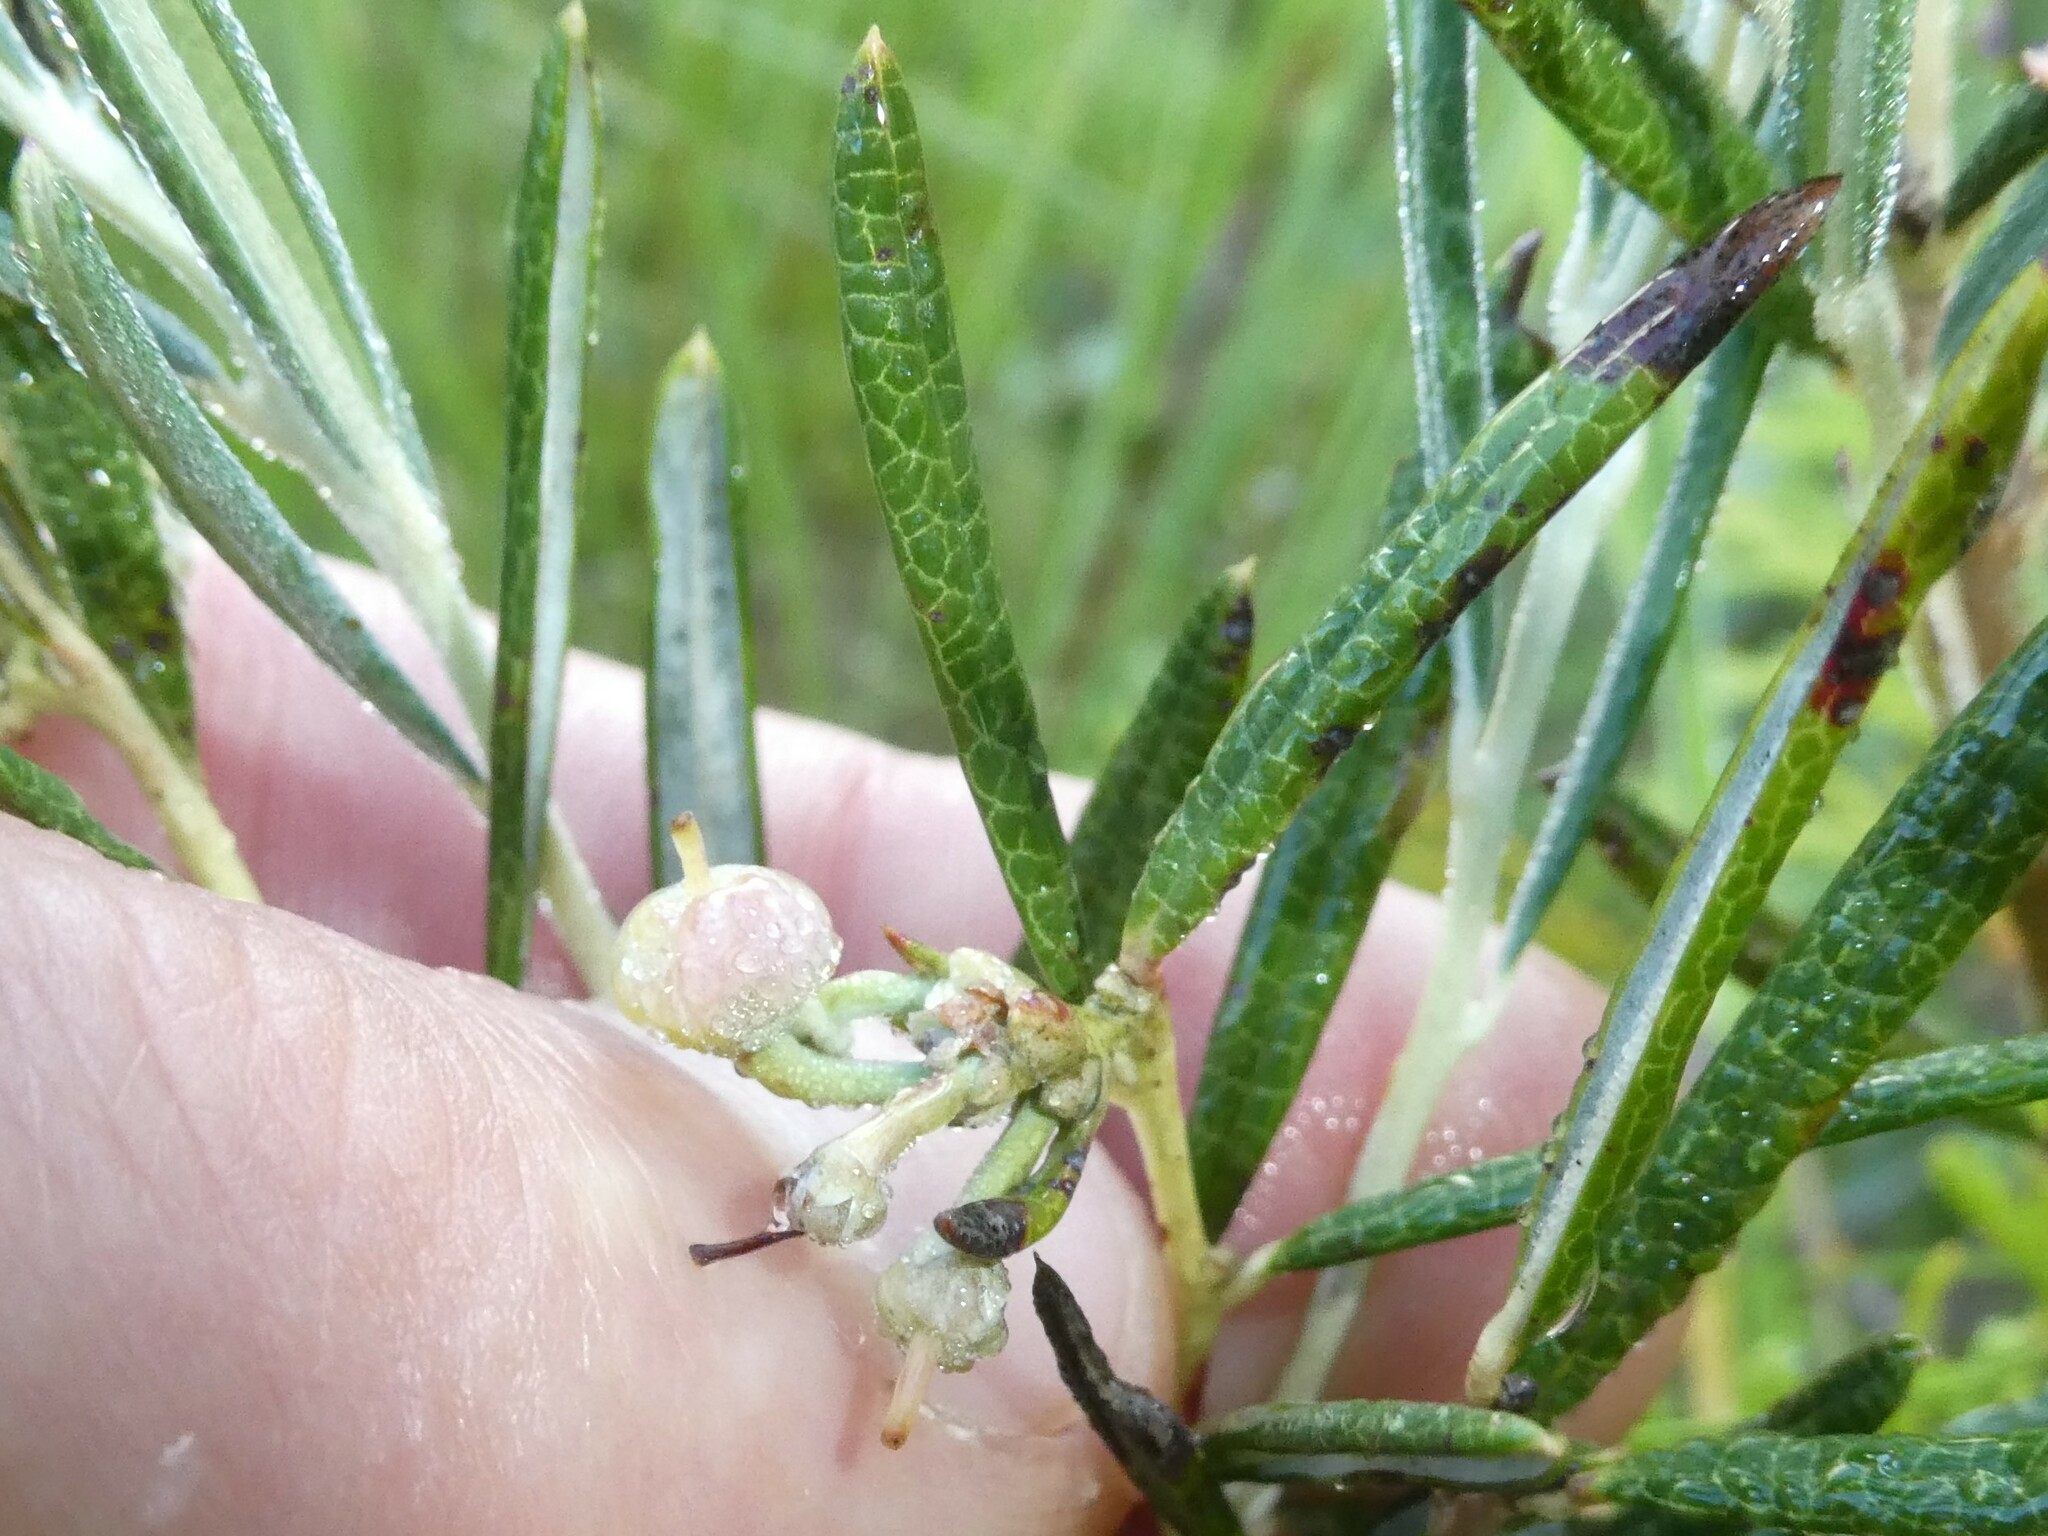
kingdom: Plantae
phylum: Tracheophyta
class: Magnoliopsida
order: Ericales
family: Ericaceae
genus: Andromeda
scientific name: Andromeda polifolia
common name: Bog-rosemary
